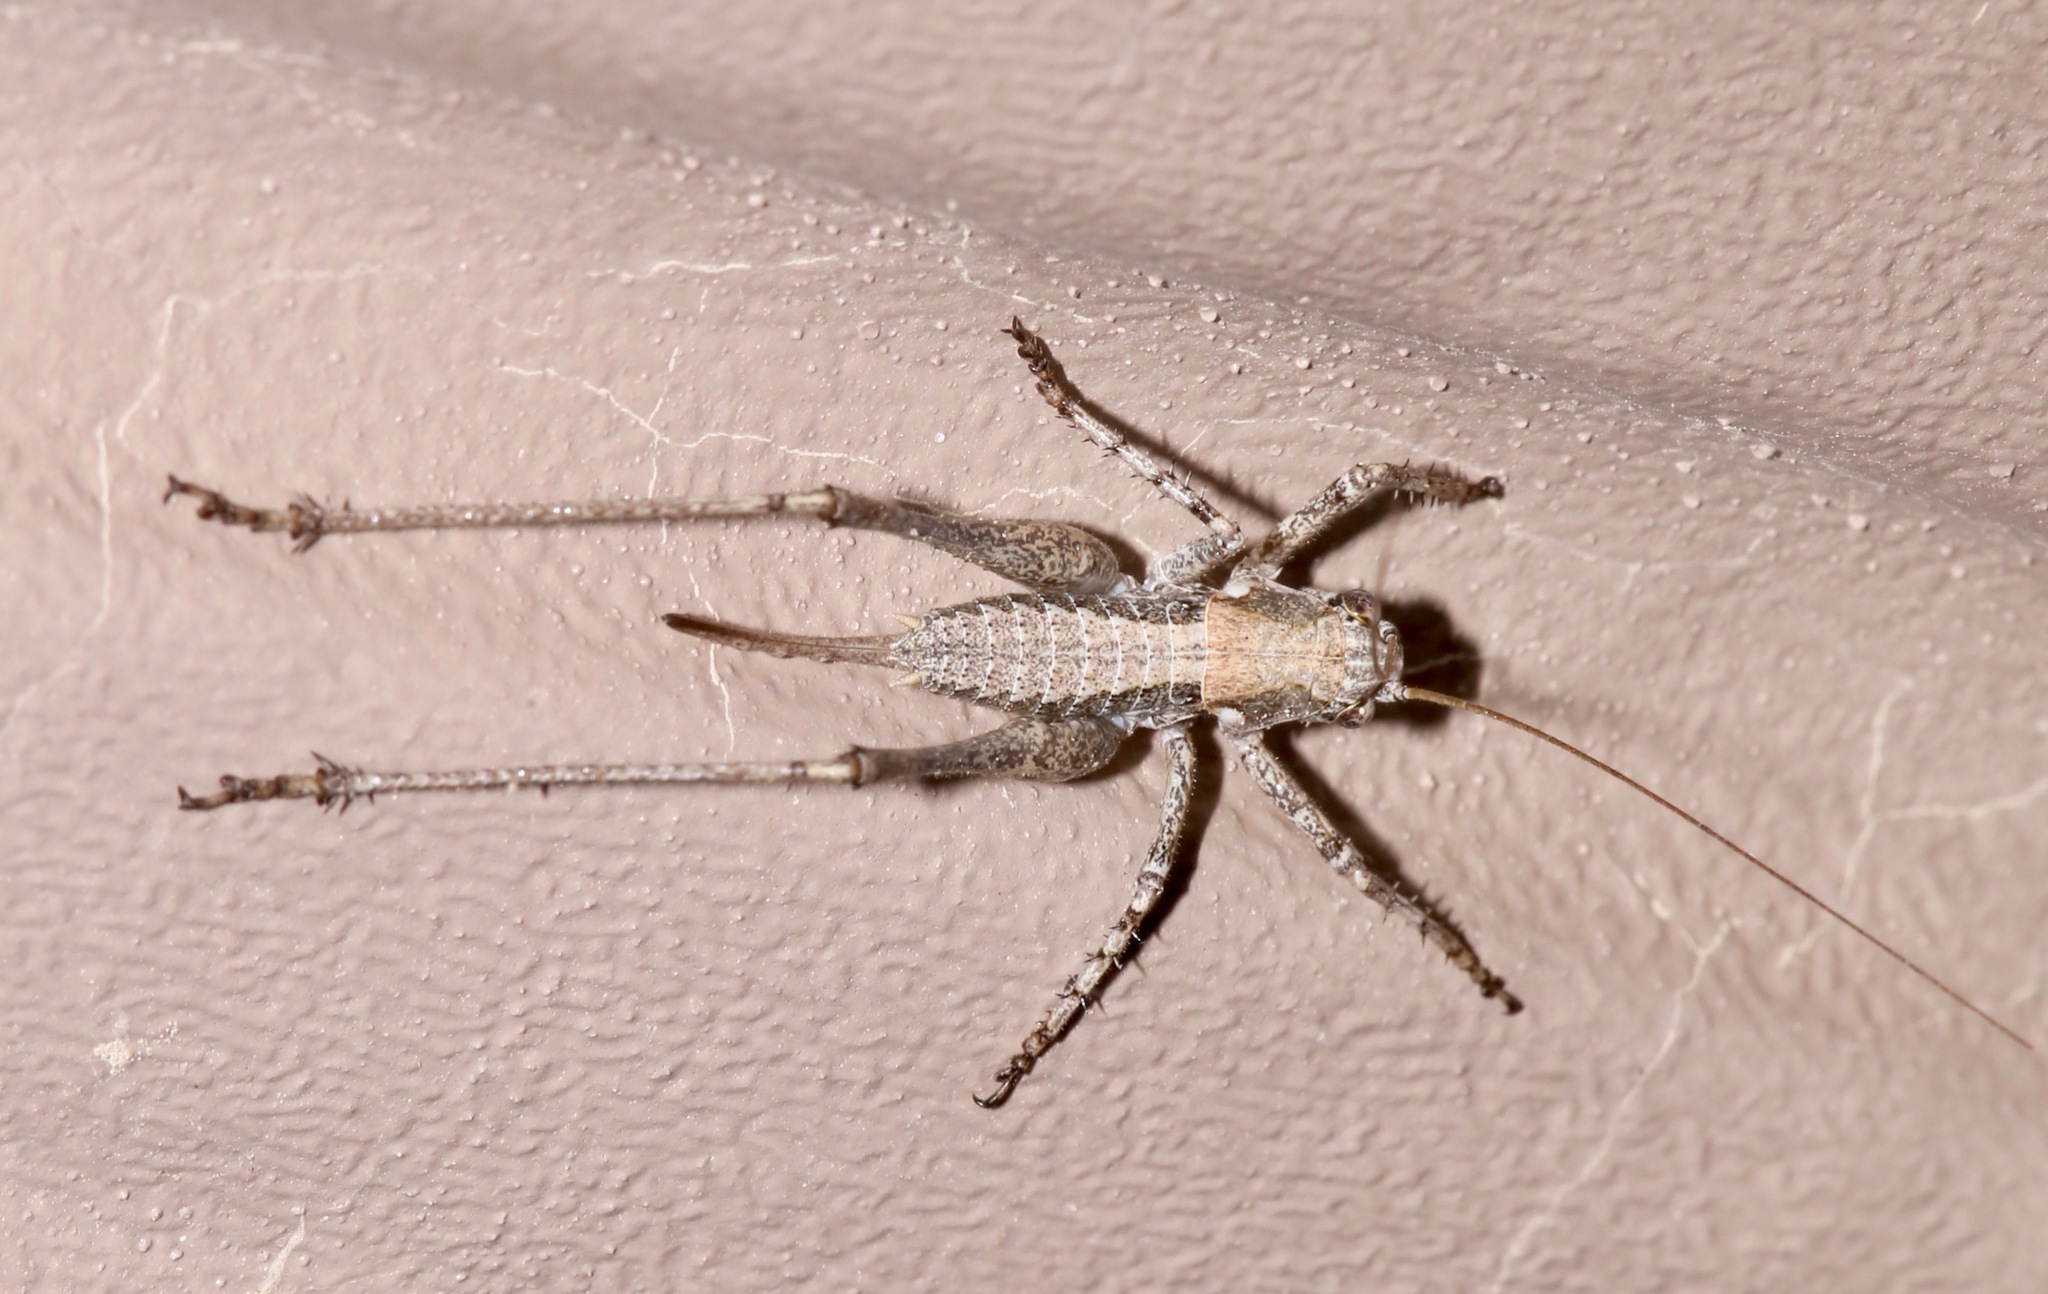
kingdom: Animalia
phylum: Arthropoda
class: Insecta
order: Orthoptera
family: Tettigoniidae
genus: Capnobotes
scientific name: Capnobotes occidentalis
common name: Western longwing
